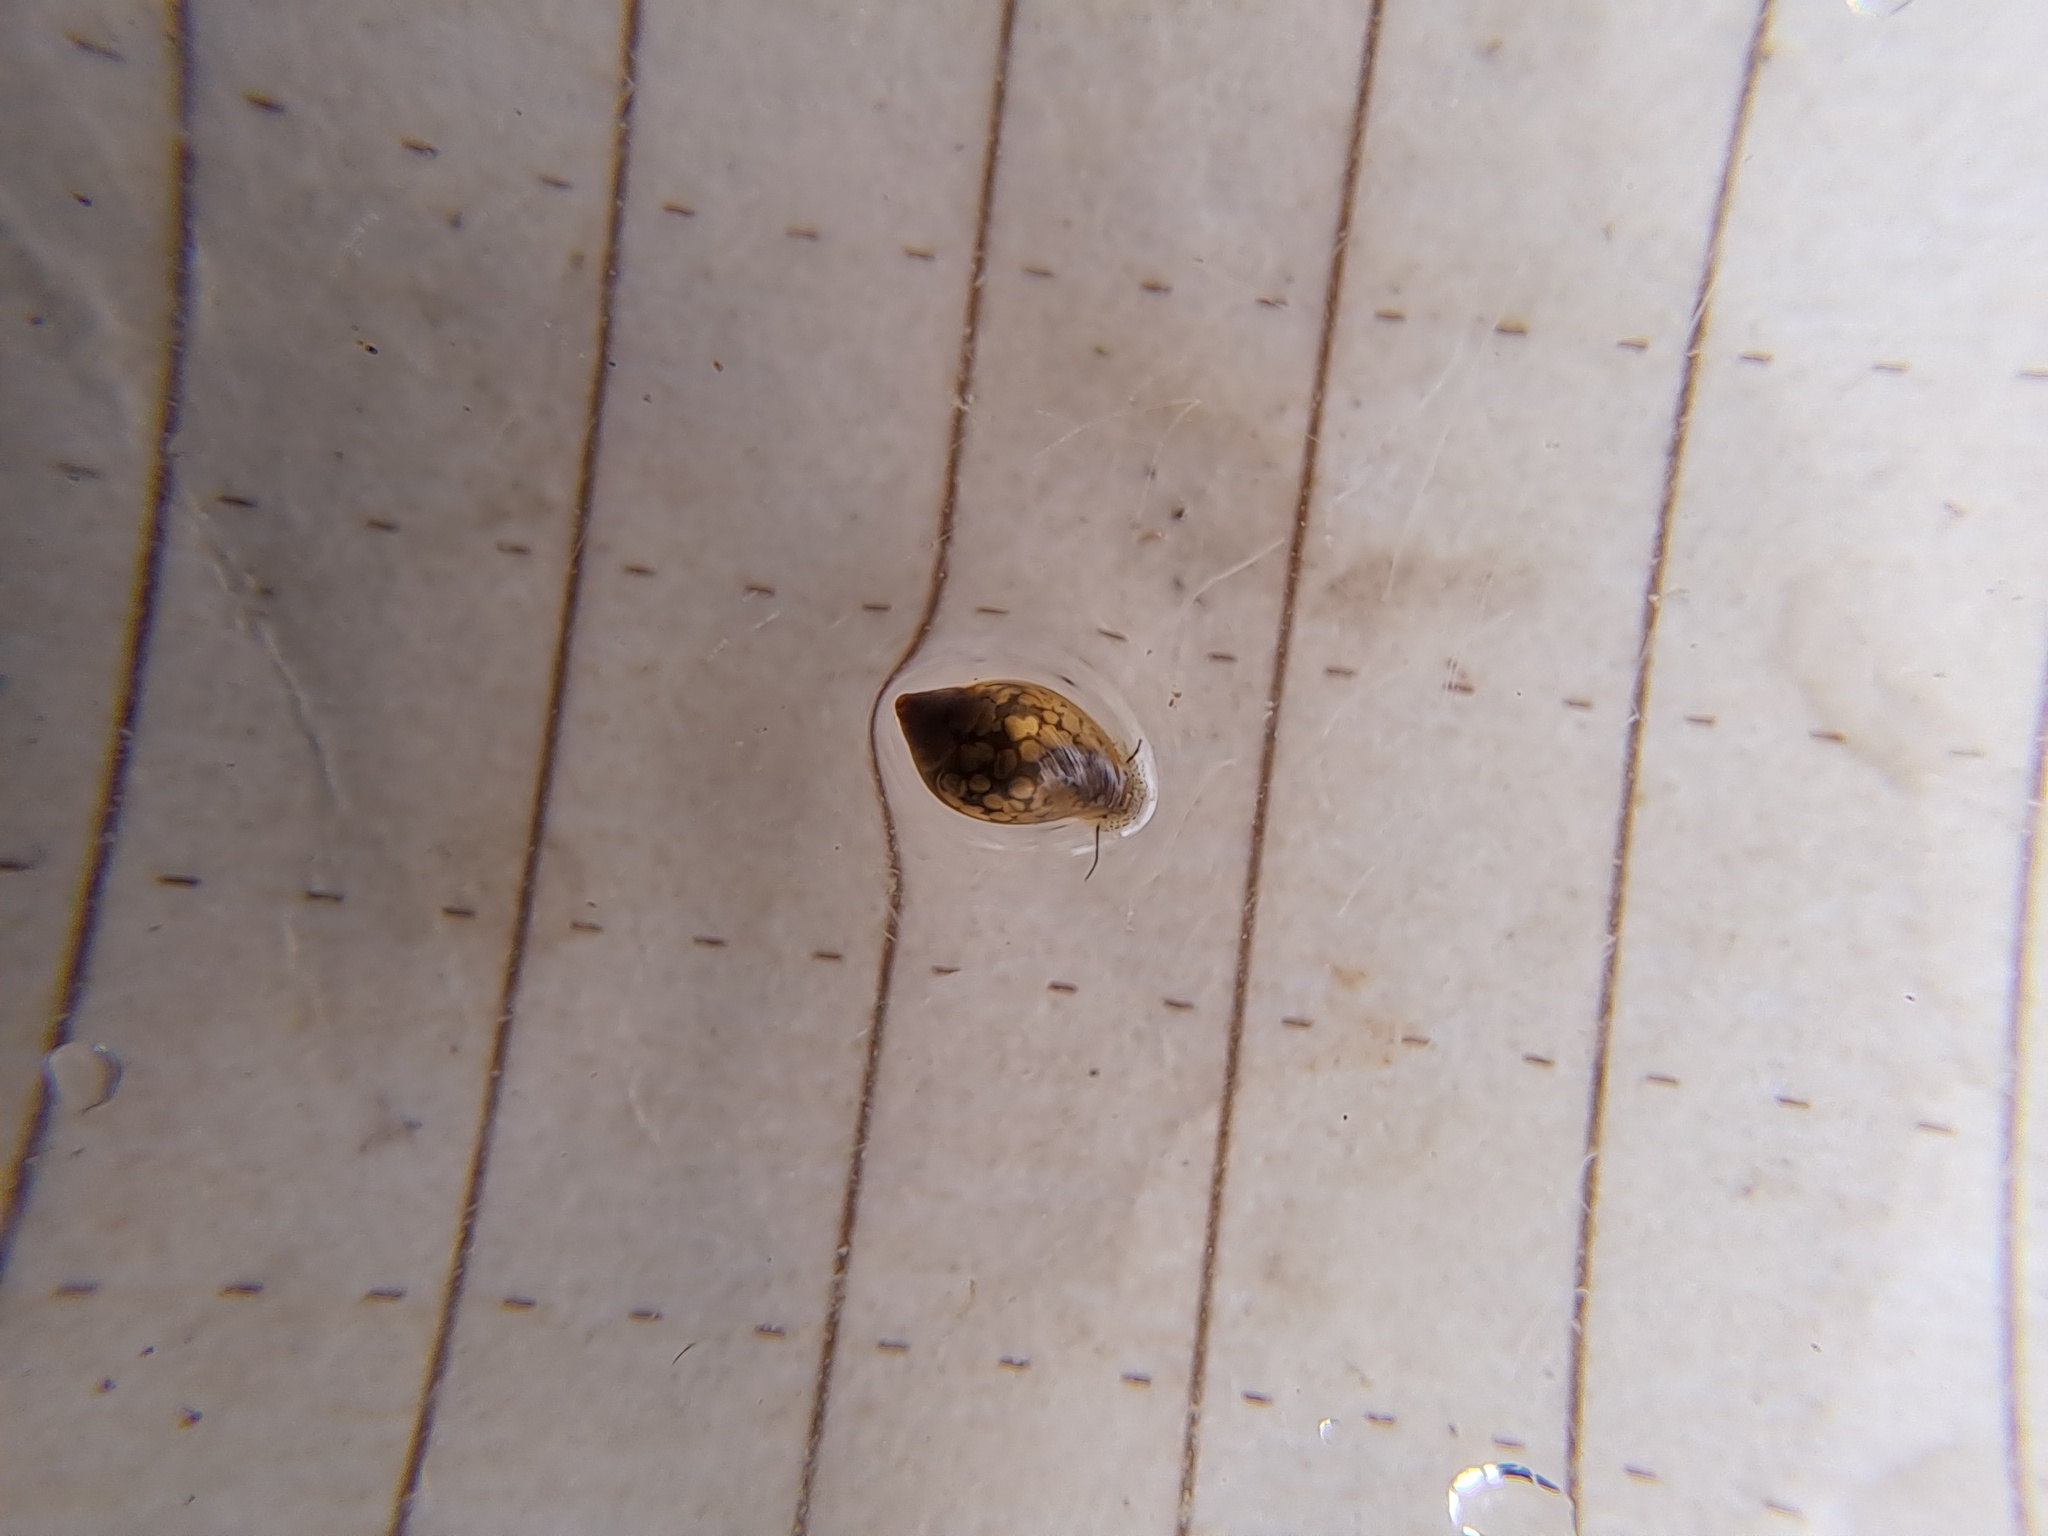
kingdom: Animalia
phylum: Mollusca
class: Gastropoda
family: Physidae
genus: Physella
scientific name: Physella
